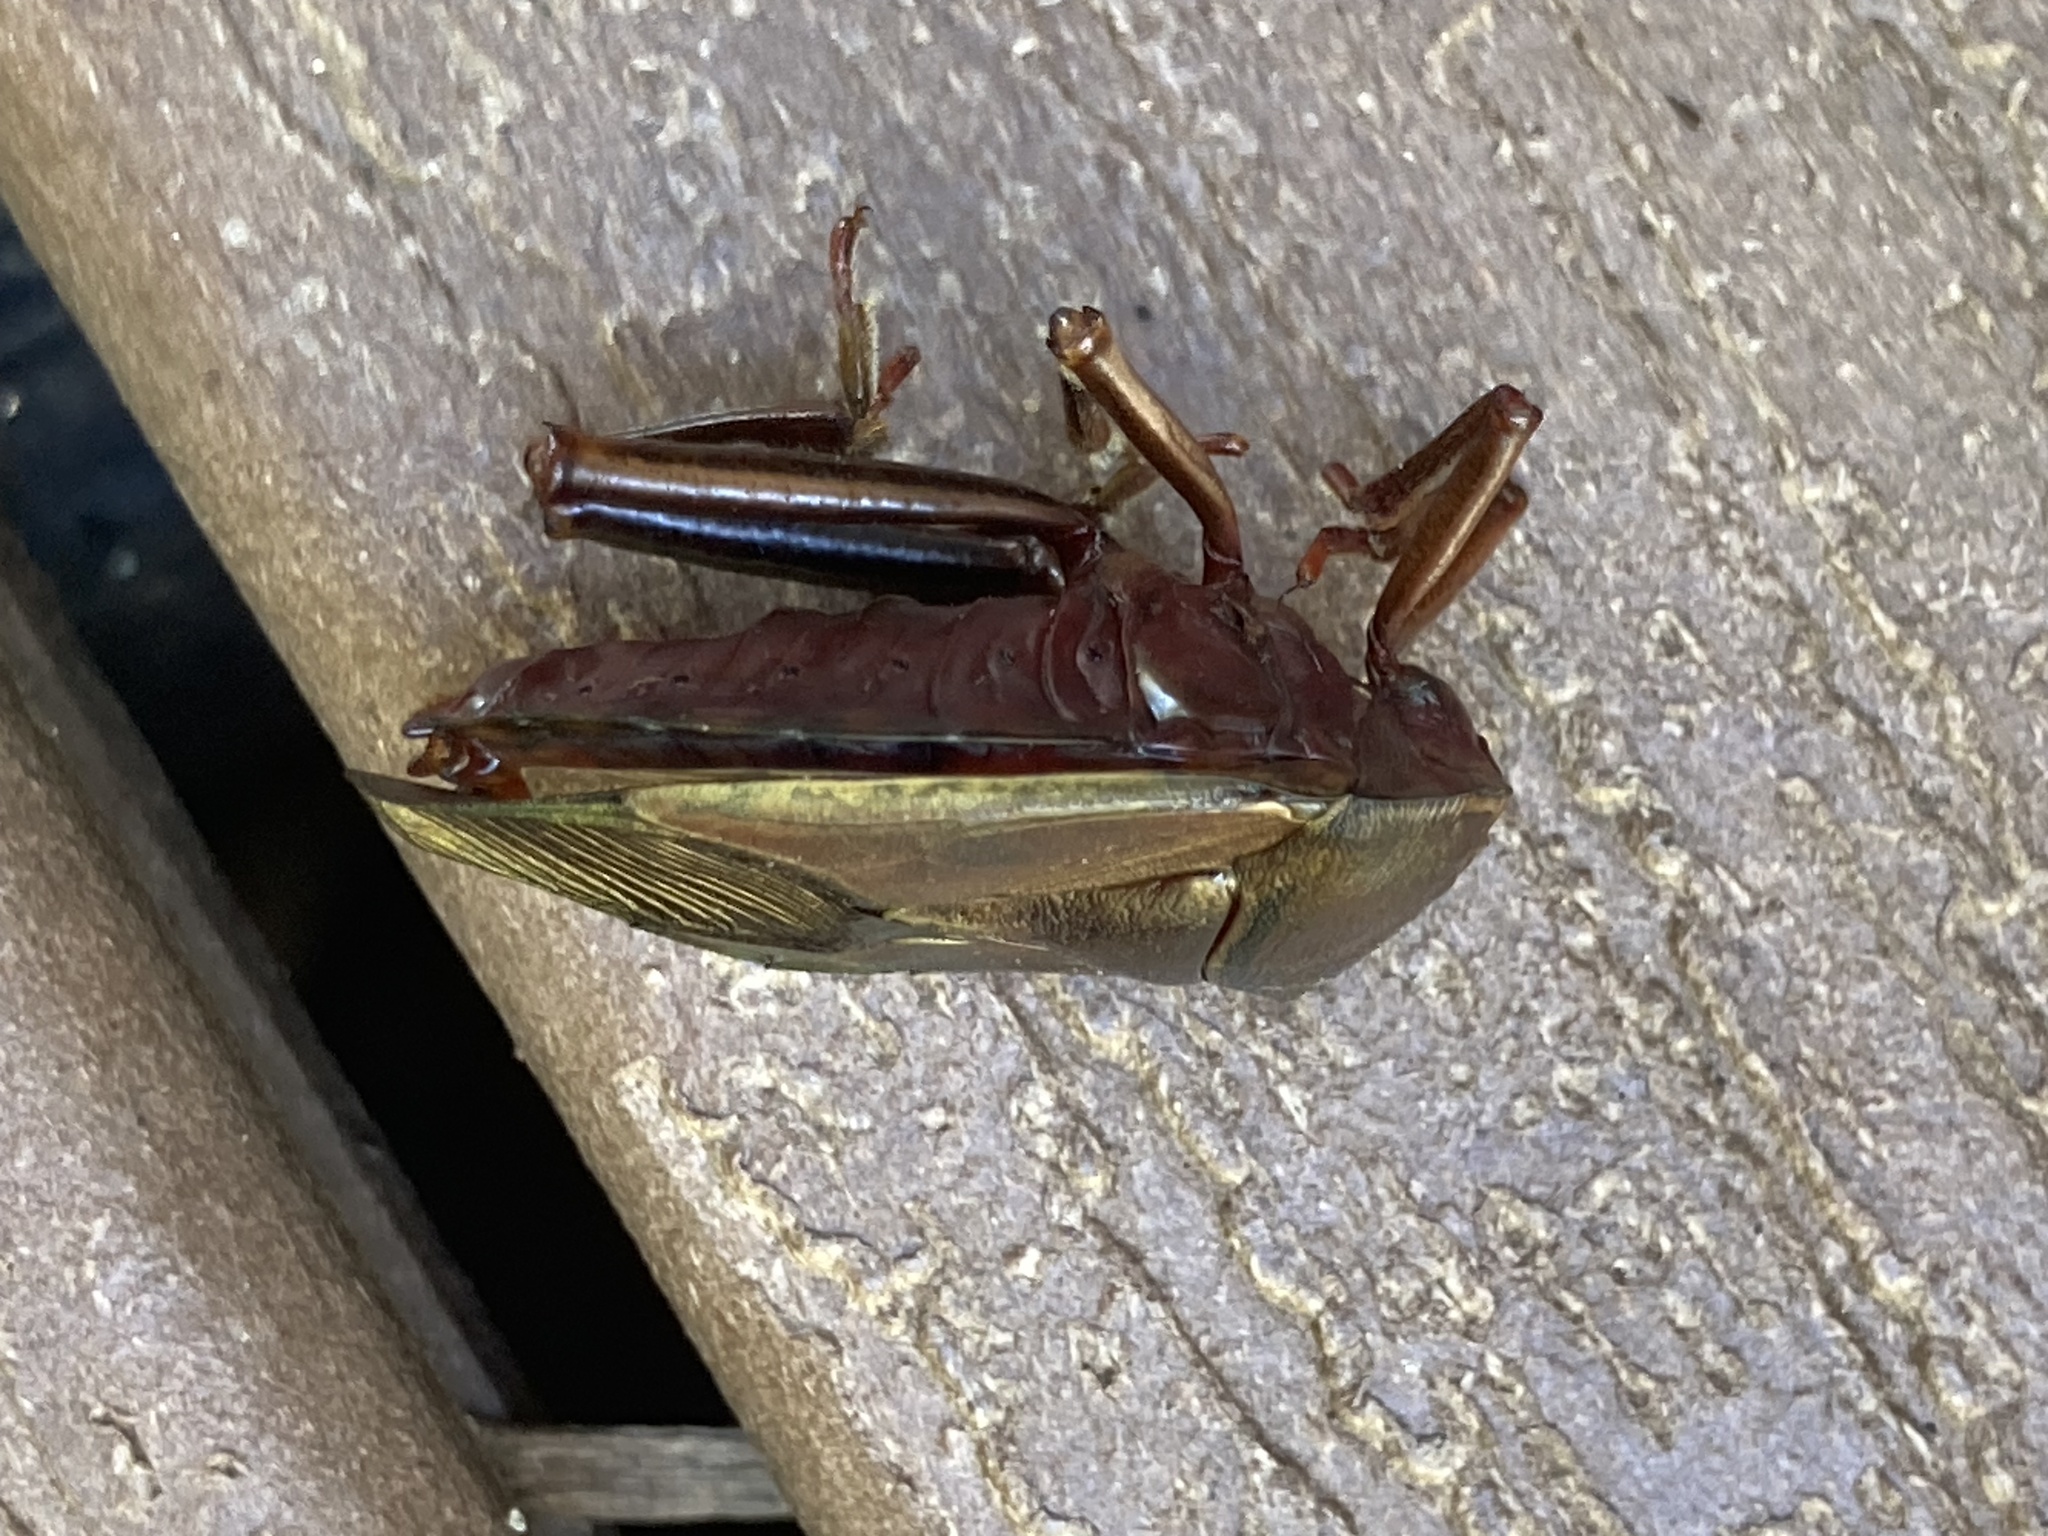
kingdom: Animalia
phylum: Arthropoda
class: Insecta
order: Hemiptera
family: Tessaratomidae
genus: Musgraveia
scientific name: Musgraveia sulciventris
